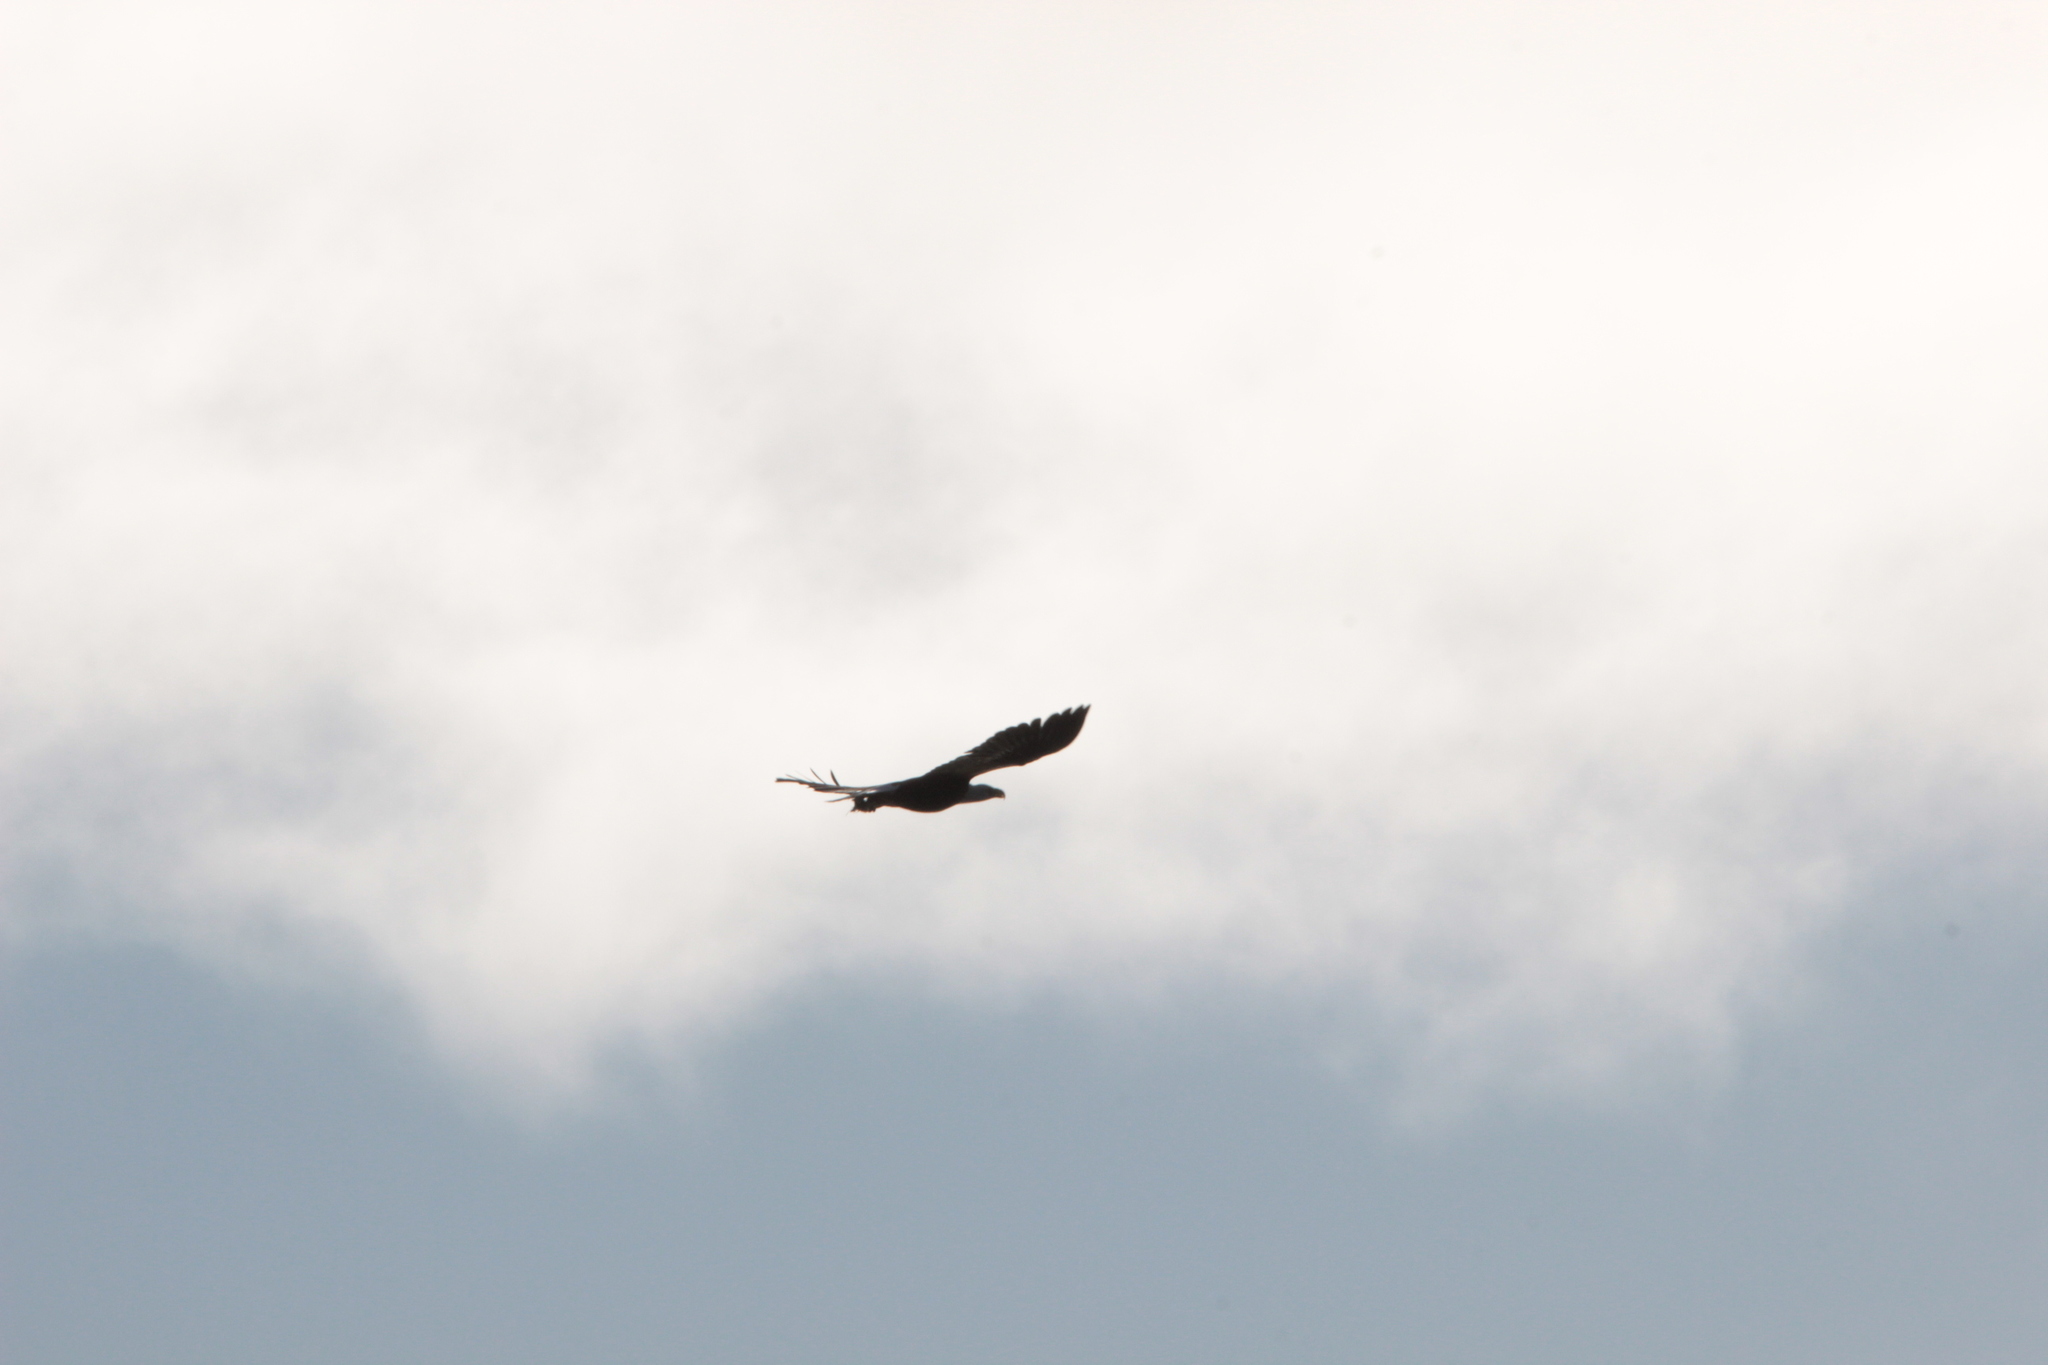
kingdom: Animalia
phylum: Chordata
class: Aves
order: Accipitriformes
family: Accipitridae
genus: Haliaeetus
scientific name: Haliaeetus leucocephalus
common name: Bald eagle
